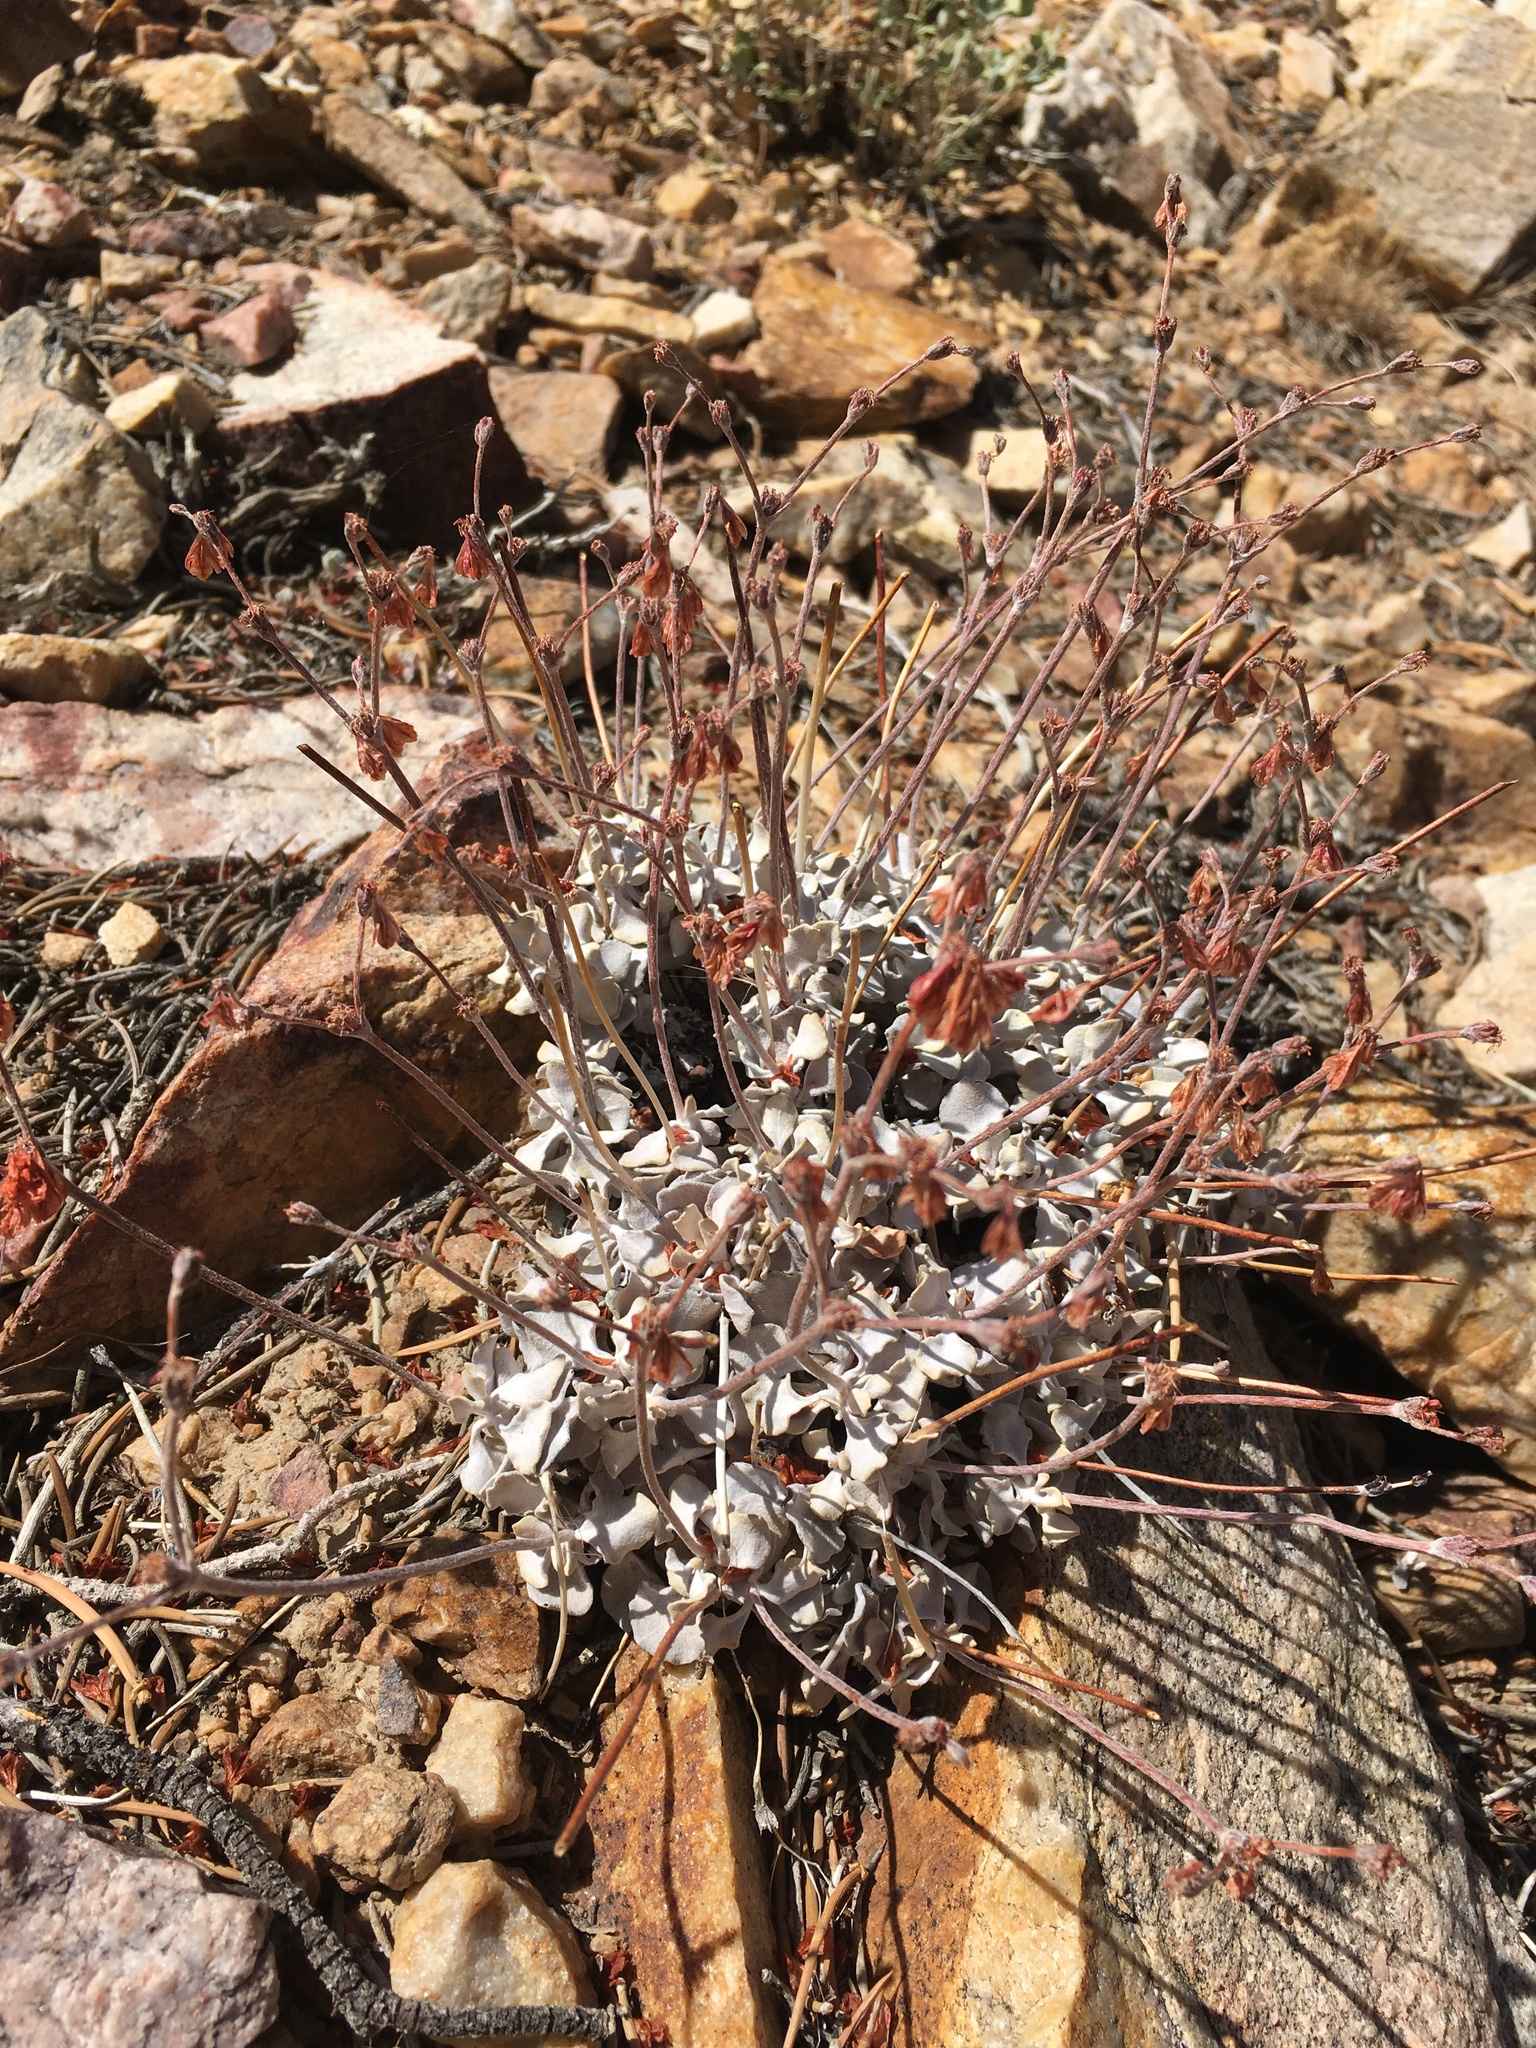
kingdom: Plantae
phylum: Tracheophyta
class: Magnoliopsida
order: Caryophyllales
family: Polygonaceae
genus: Eriogonum
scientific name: Eriogonum saxatile
